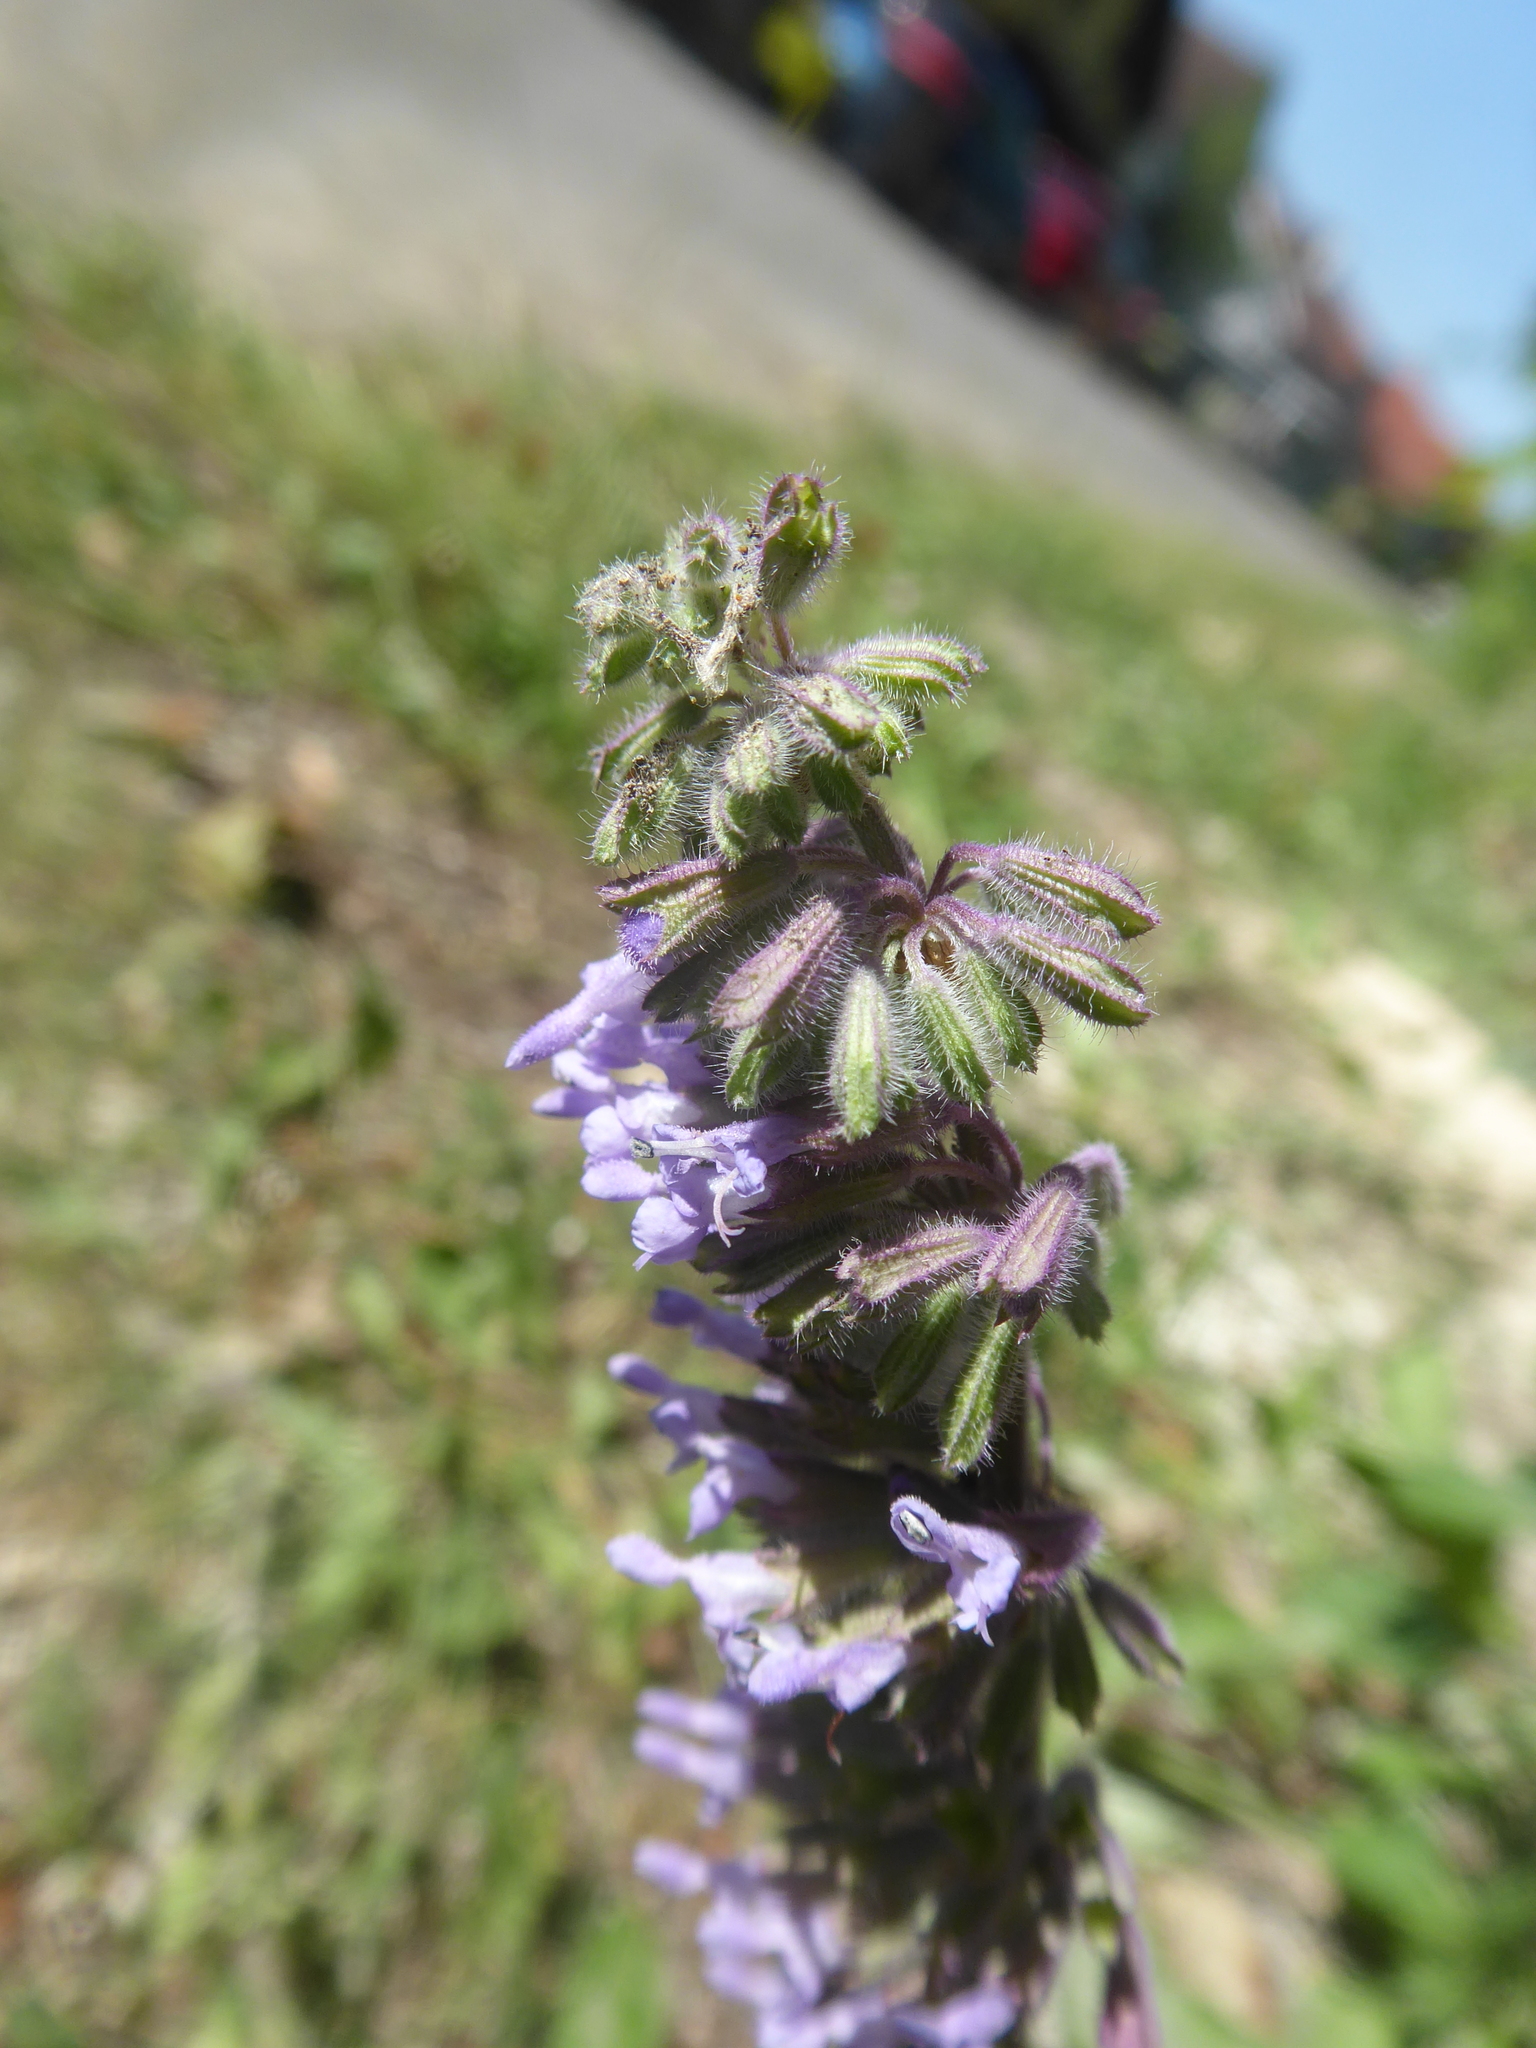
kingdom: Plantae
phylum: Tracheophyta
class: Magnoliopsida
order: Lamiales
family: Lamiaceae
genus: Salvia
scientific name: Salvia verticillata
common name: Whorled clary
